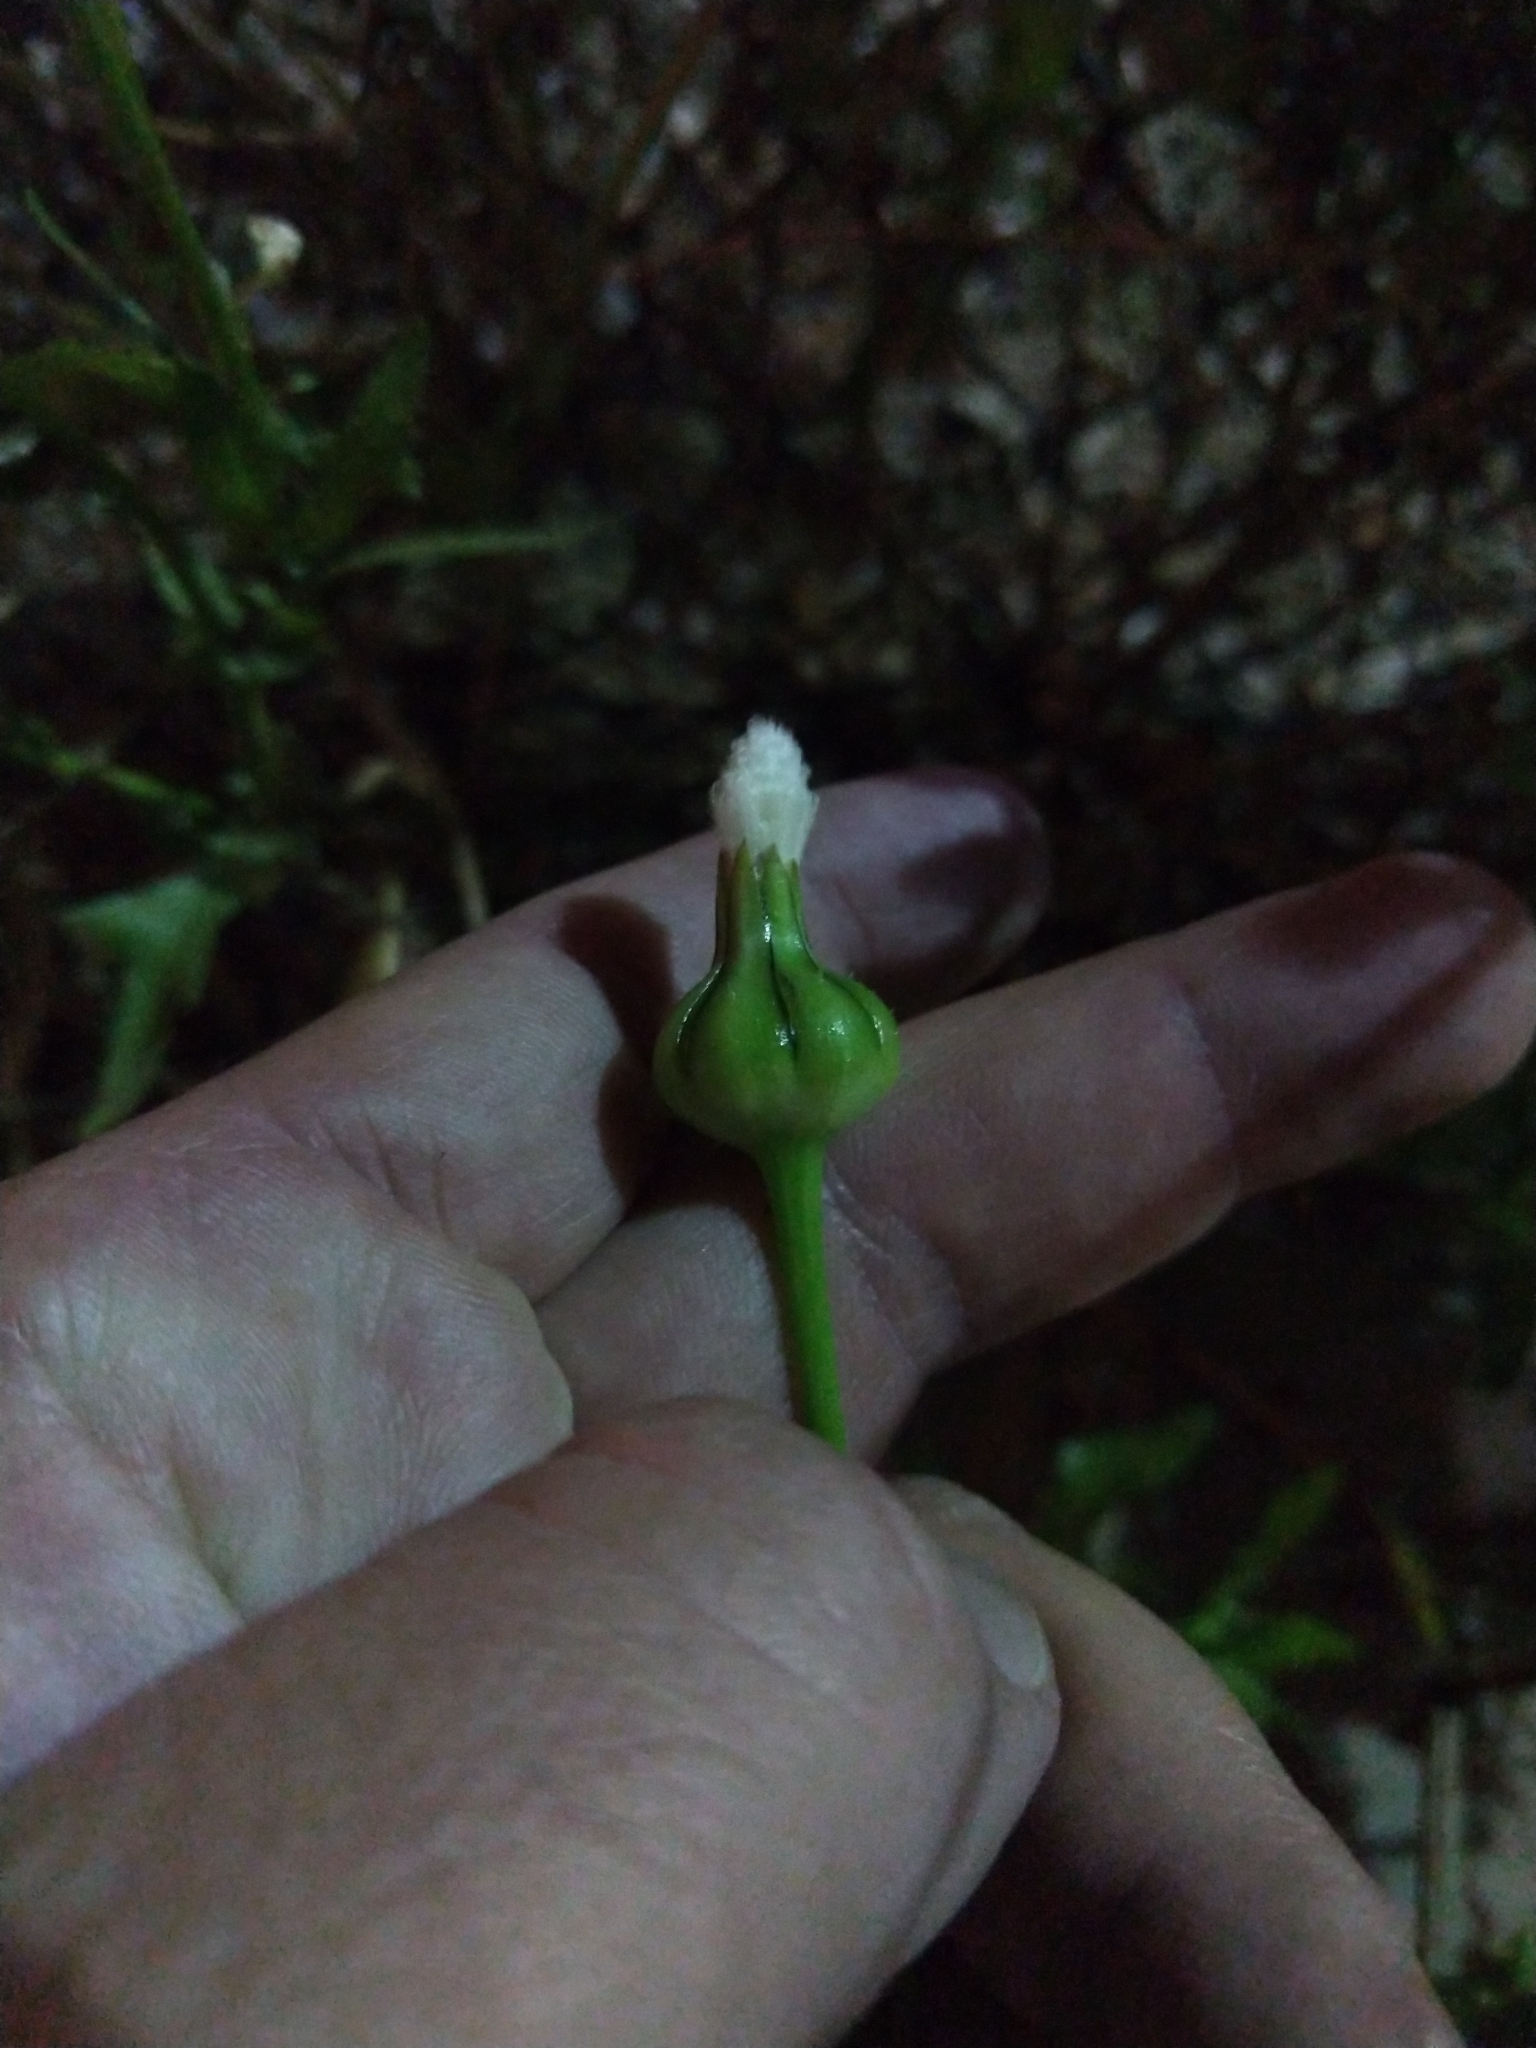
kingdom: Plantae
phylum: Tracheophyta
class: Magnoliopsida
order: Asterales
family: Asteraceae
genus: Urospermum
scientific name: Urospermum picroides
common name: False hawkbit
